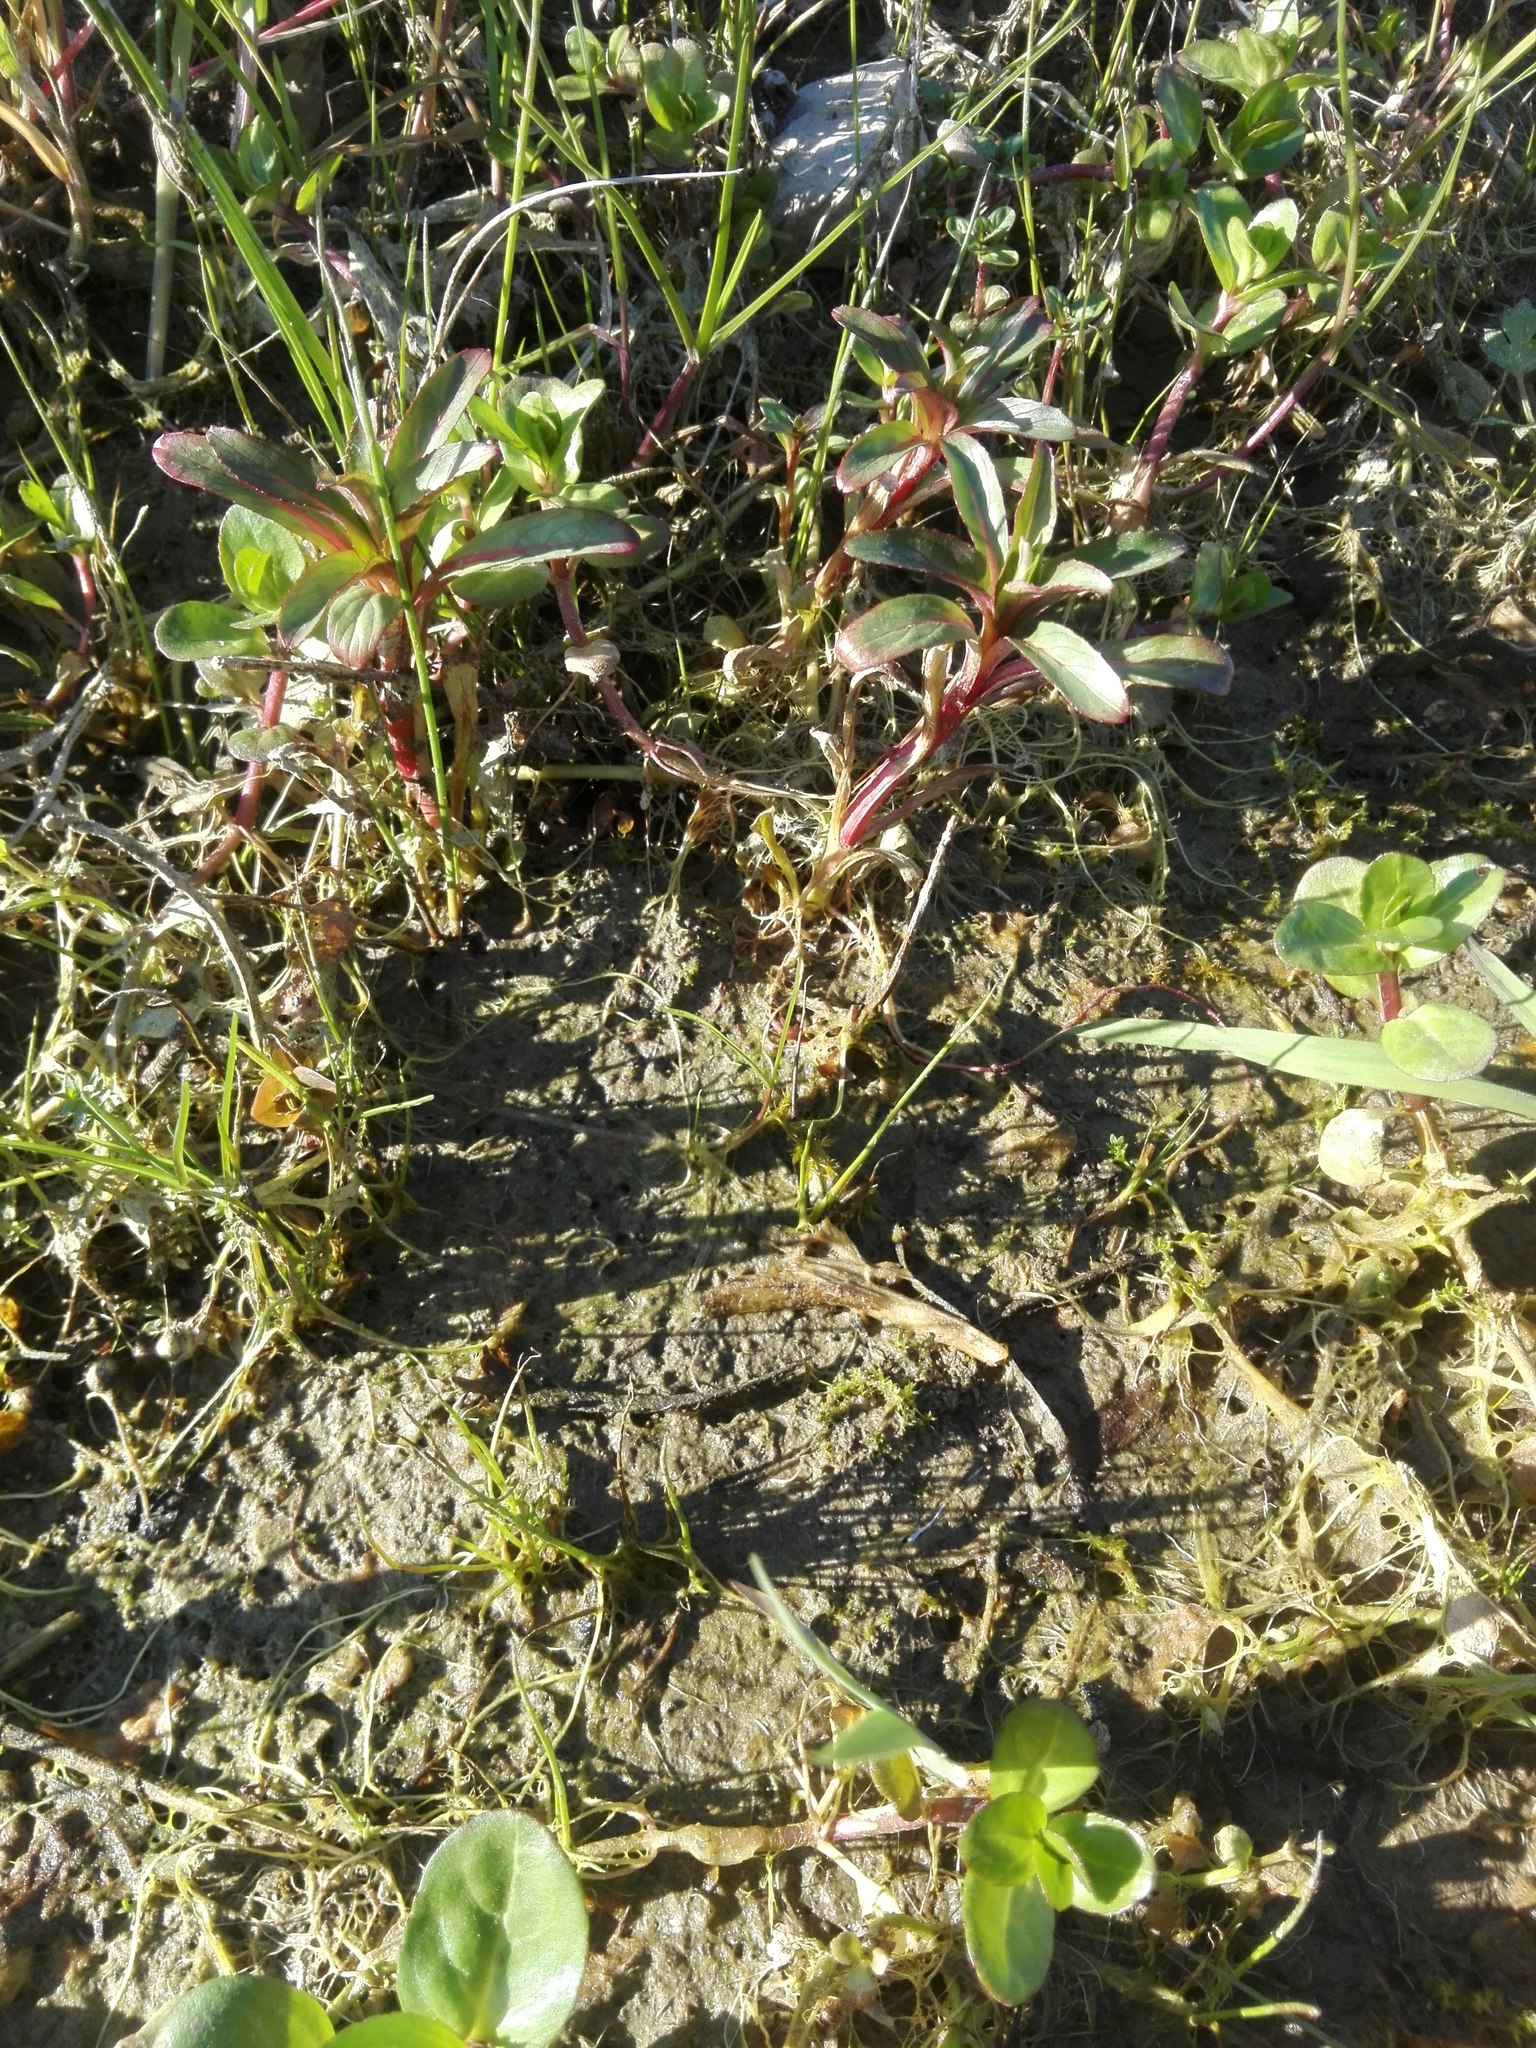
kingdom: Plantae
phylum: Tracheophyta
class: Magnoliopsida
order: Lamiales
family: Plantaginaceae
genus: Veronica
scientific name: Veronica beccabunga
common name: Brooklime
